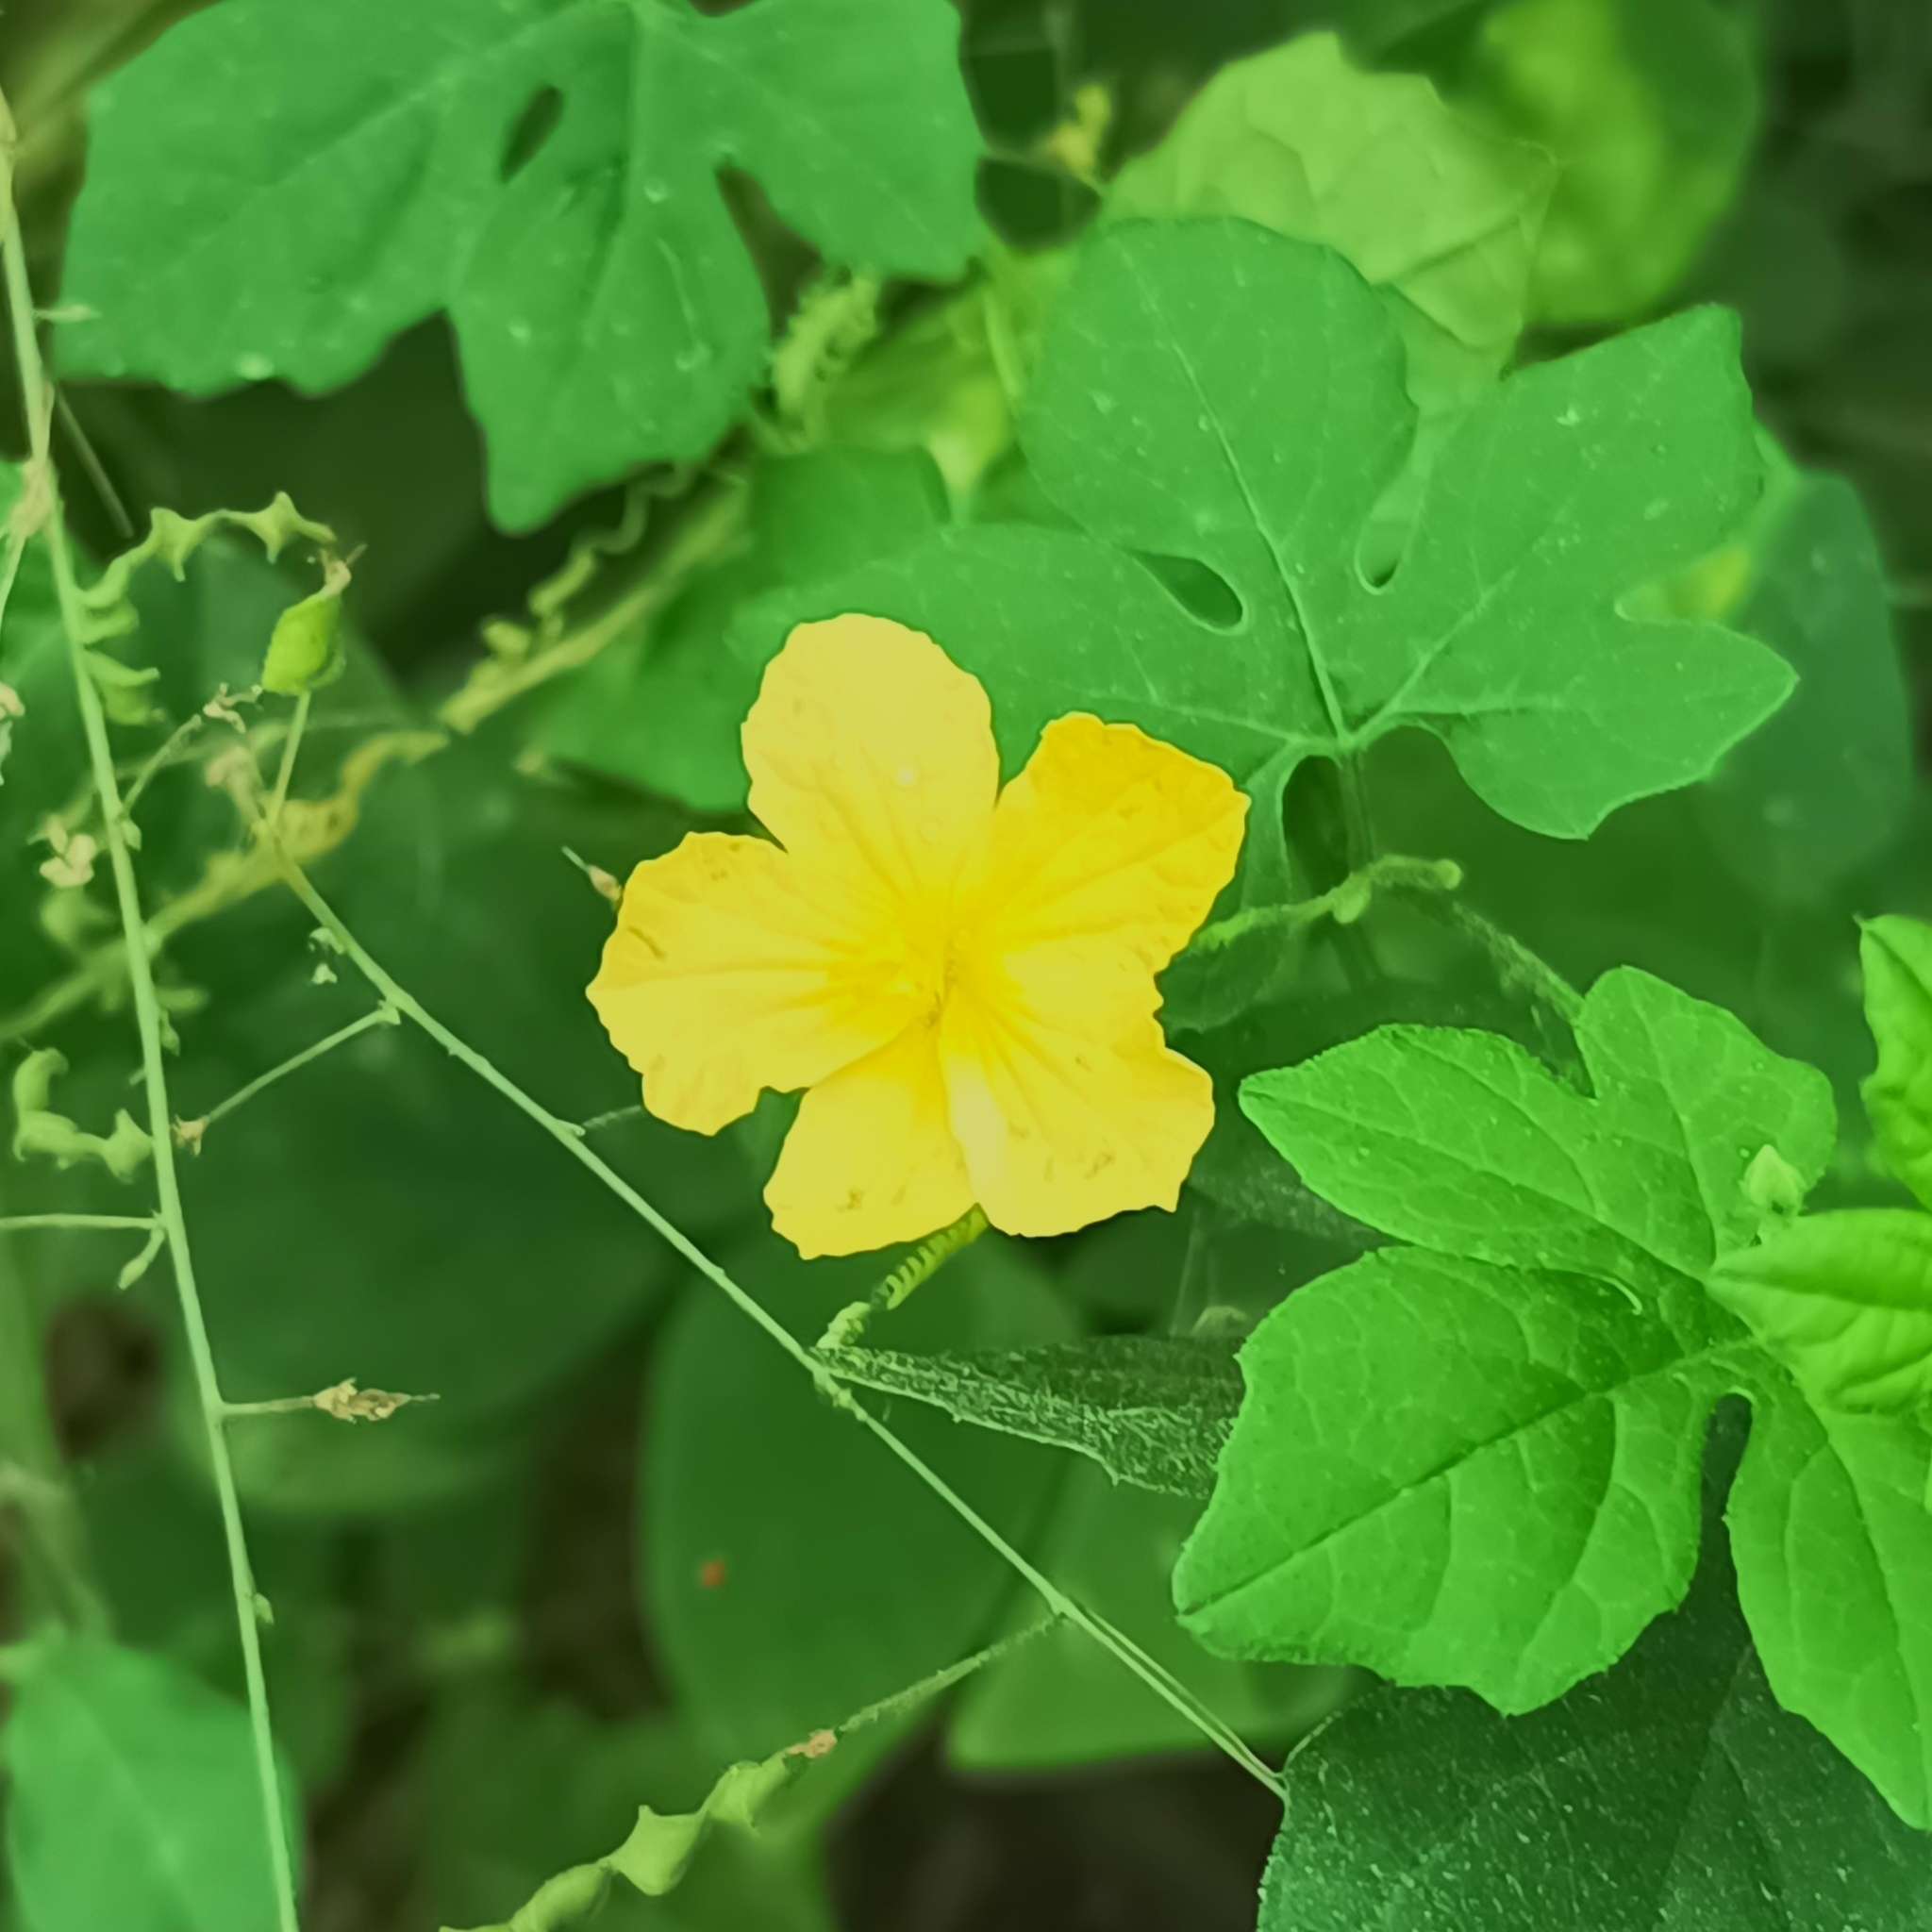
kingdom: Plantae
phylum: Tracheophyta
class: Magnoliopsida
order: Cucurbitales
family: Cucurbitaceae
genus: Momordica
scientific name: Momordica charantia
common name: Balsampear
